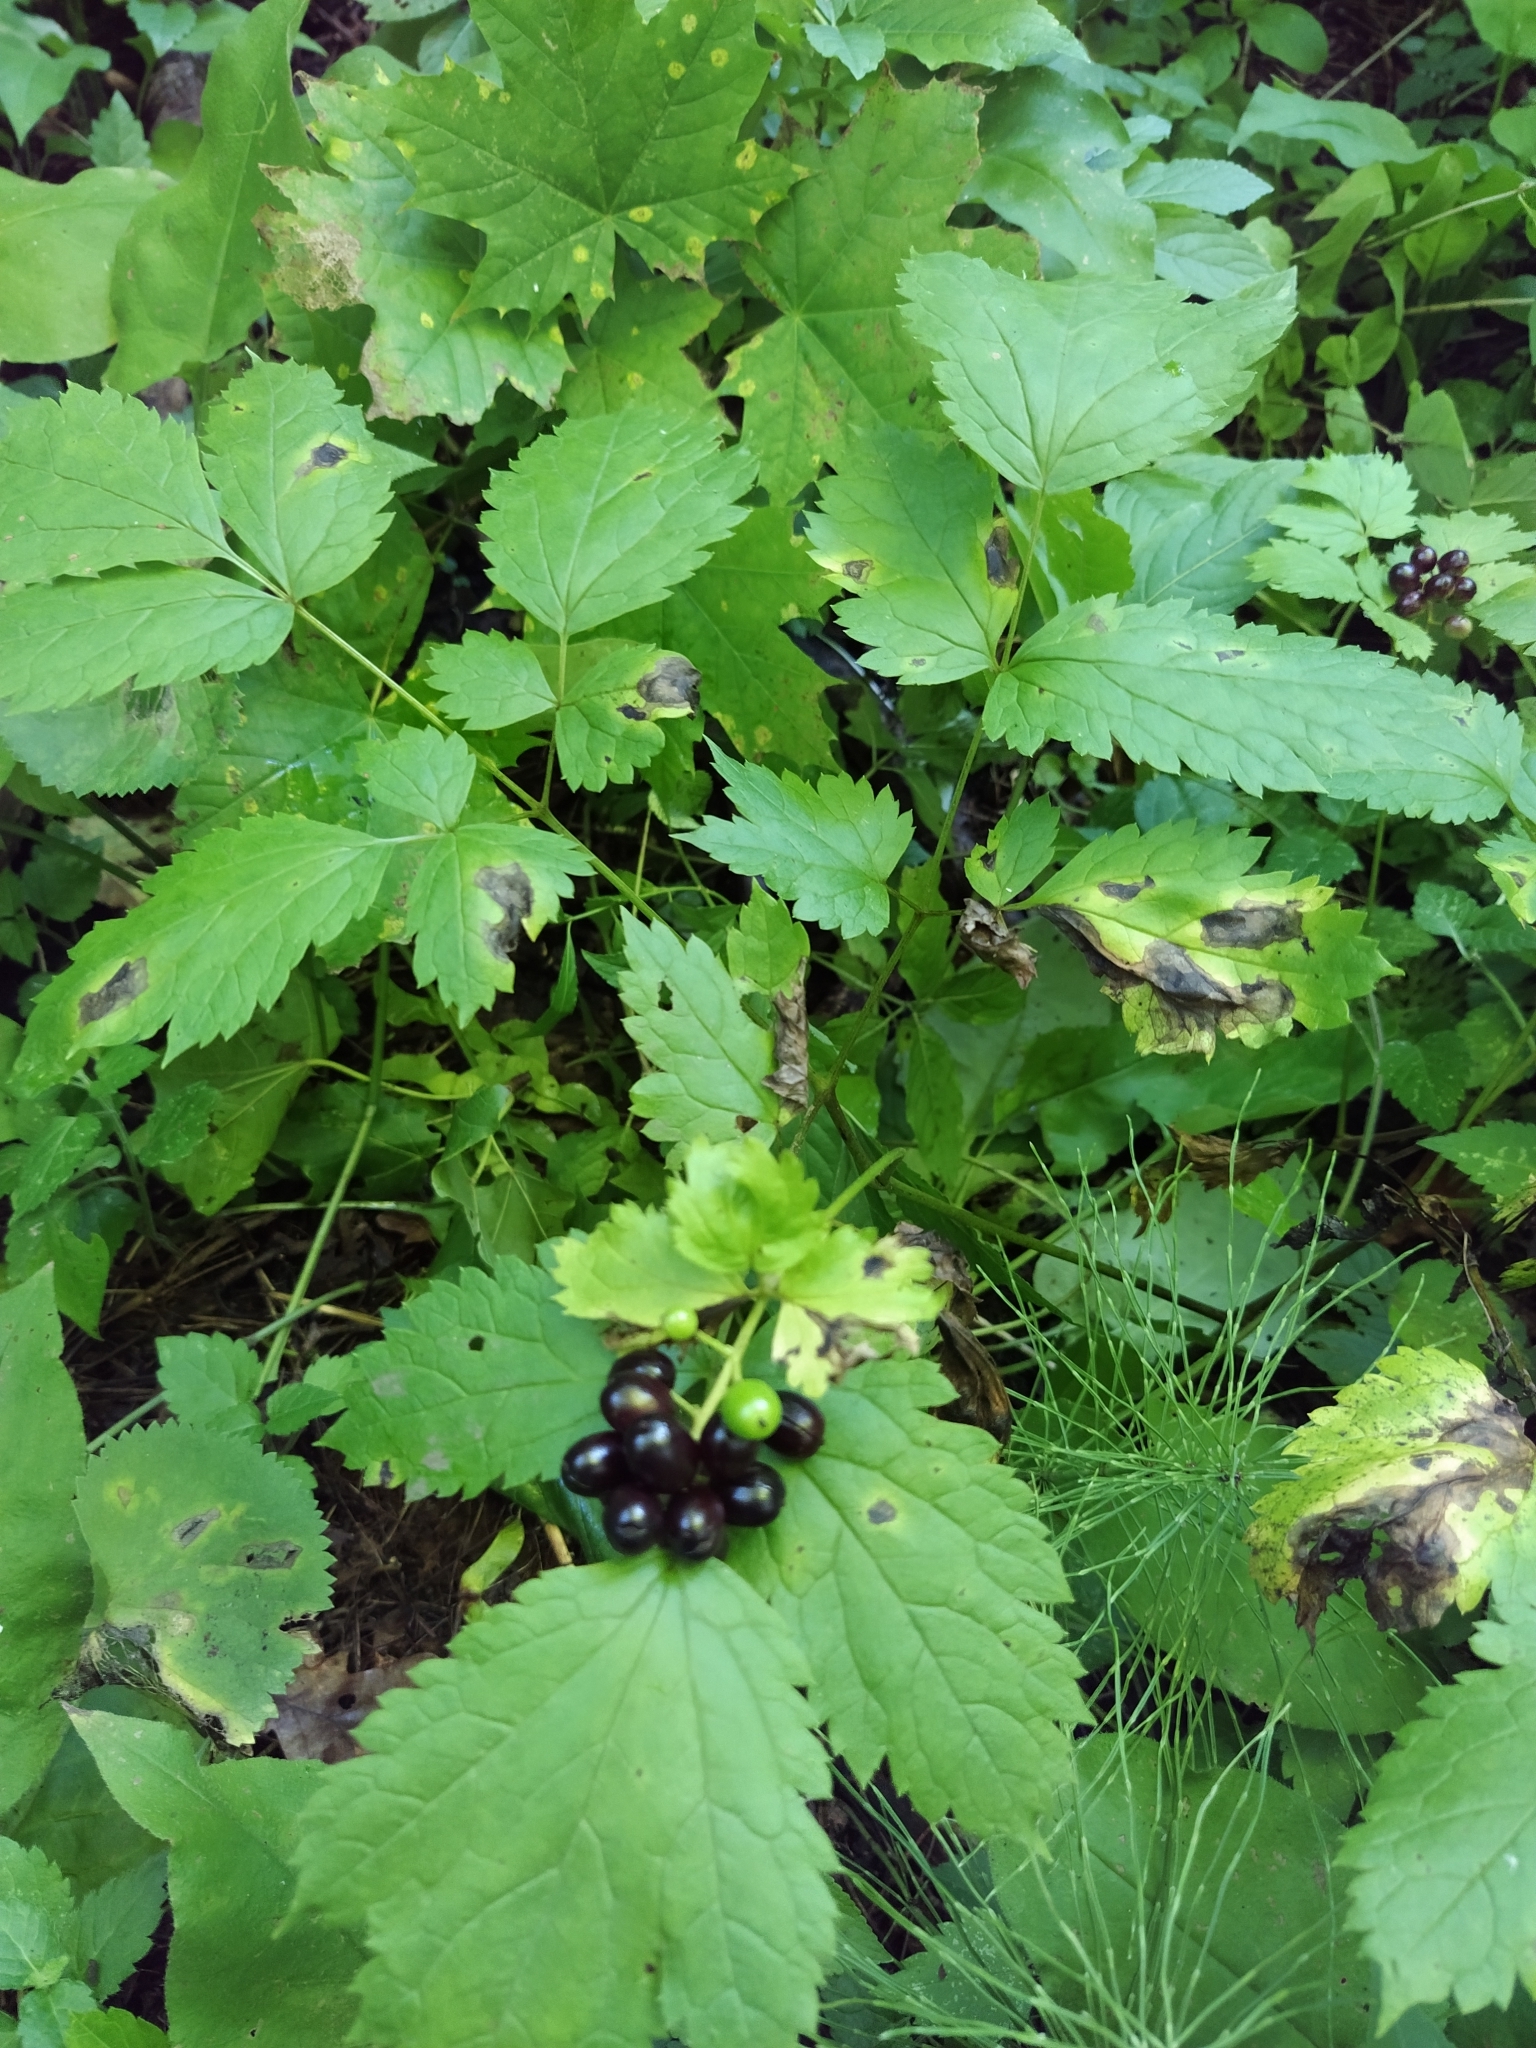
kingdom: Plantae
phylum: Tracheophyta
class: Magnoliopsida
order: Ranunculales
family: Ranunculaceae
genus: Actaea
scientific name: Actaea spicata
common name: Baneberry
